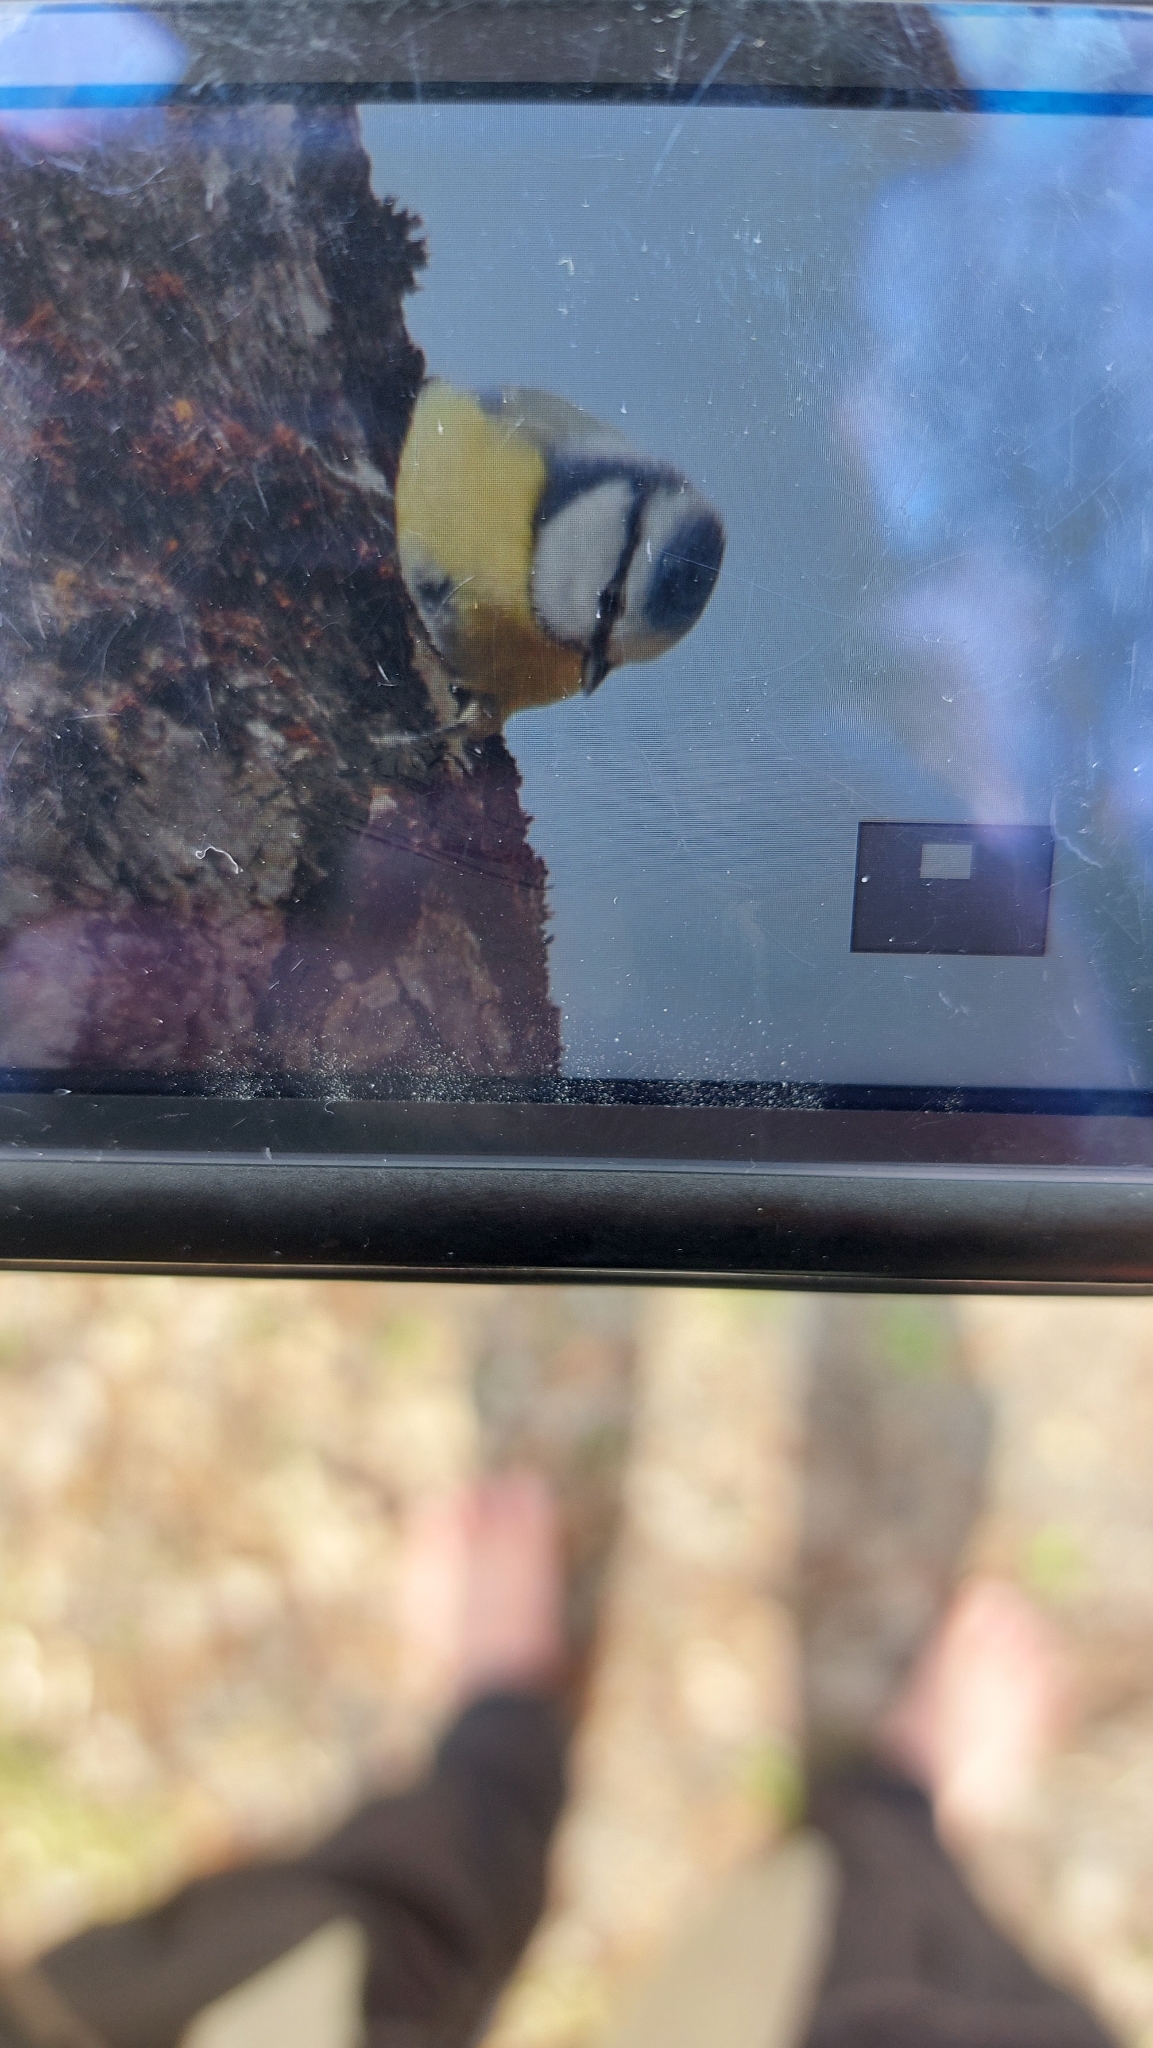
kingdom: Animalia
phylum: Chordata
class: Aves
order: Passeriformes
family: Paridae
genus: Cyanistes
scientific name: Cyanistes caeruleus
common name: Eurasian blue tit
